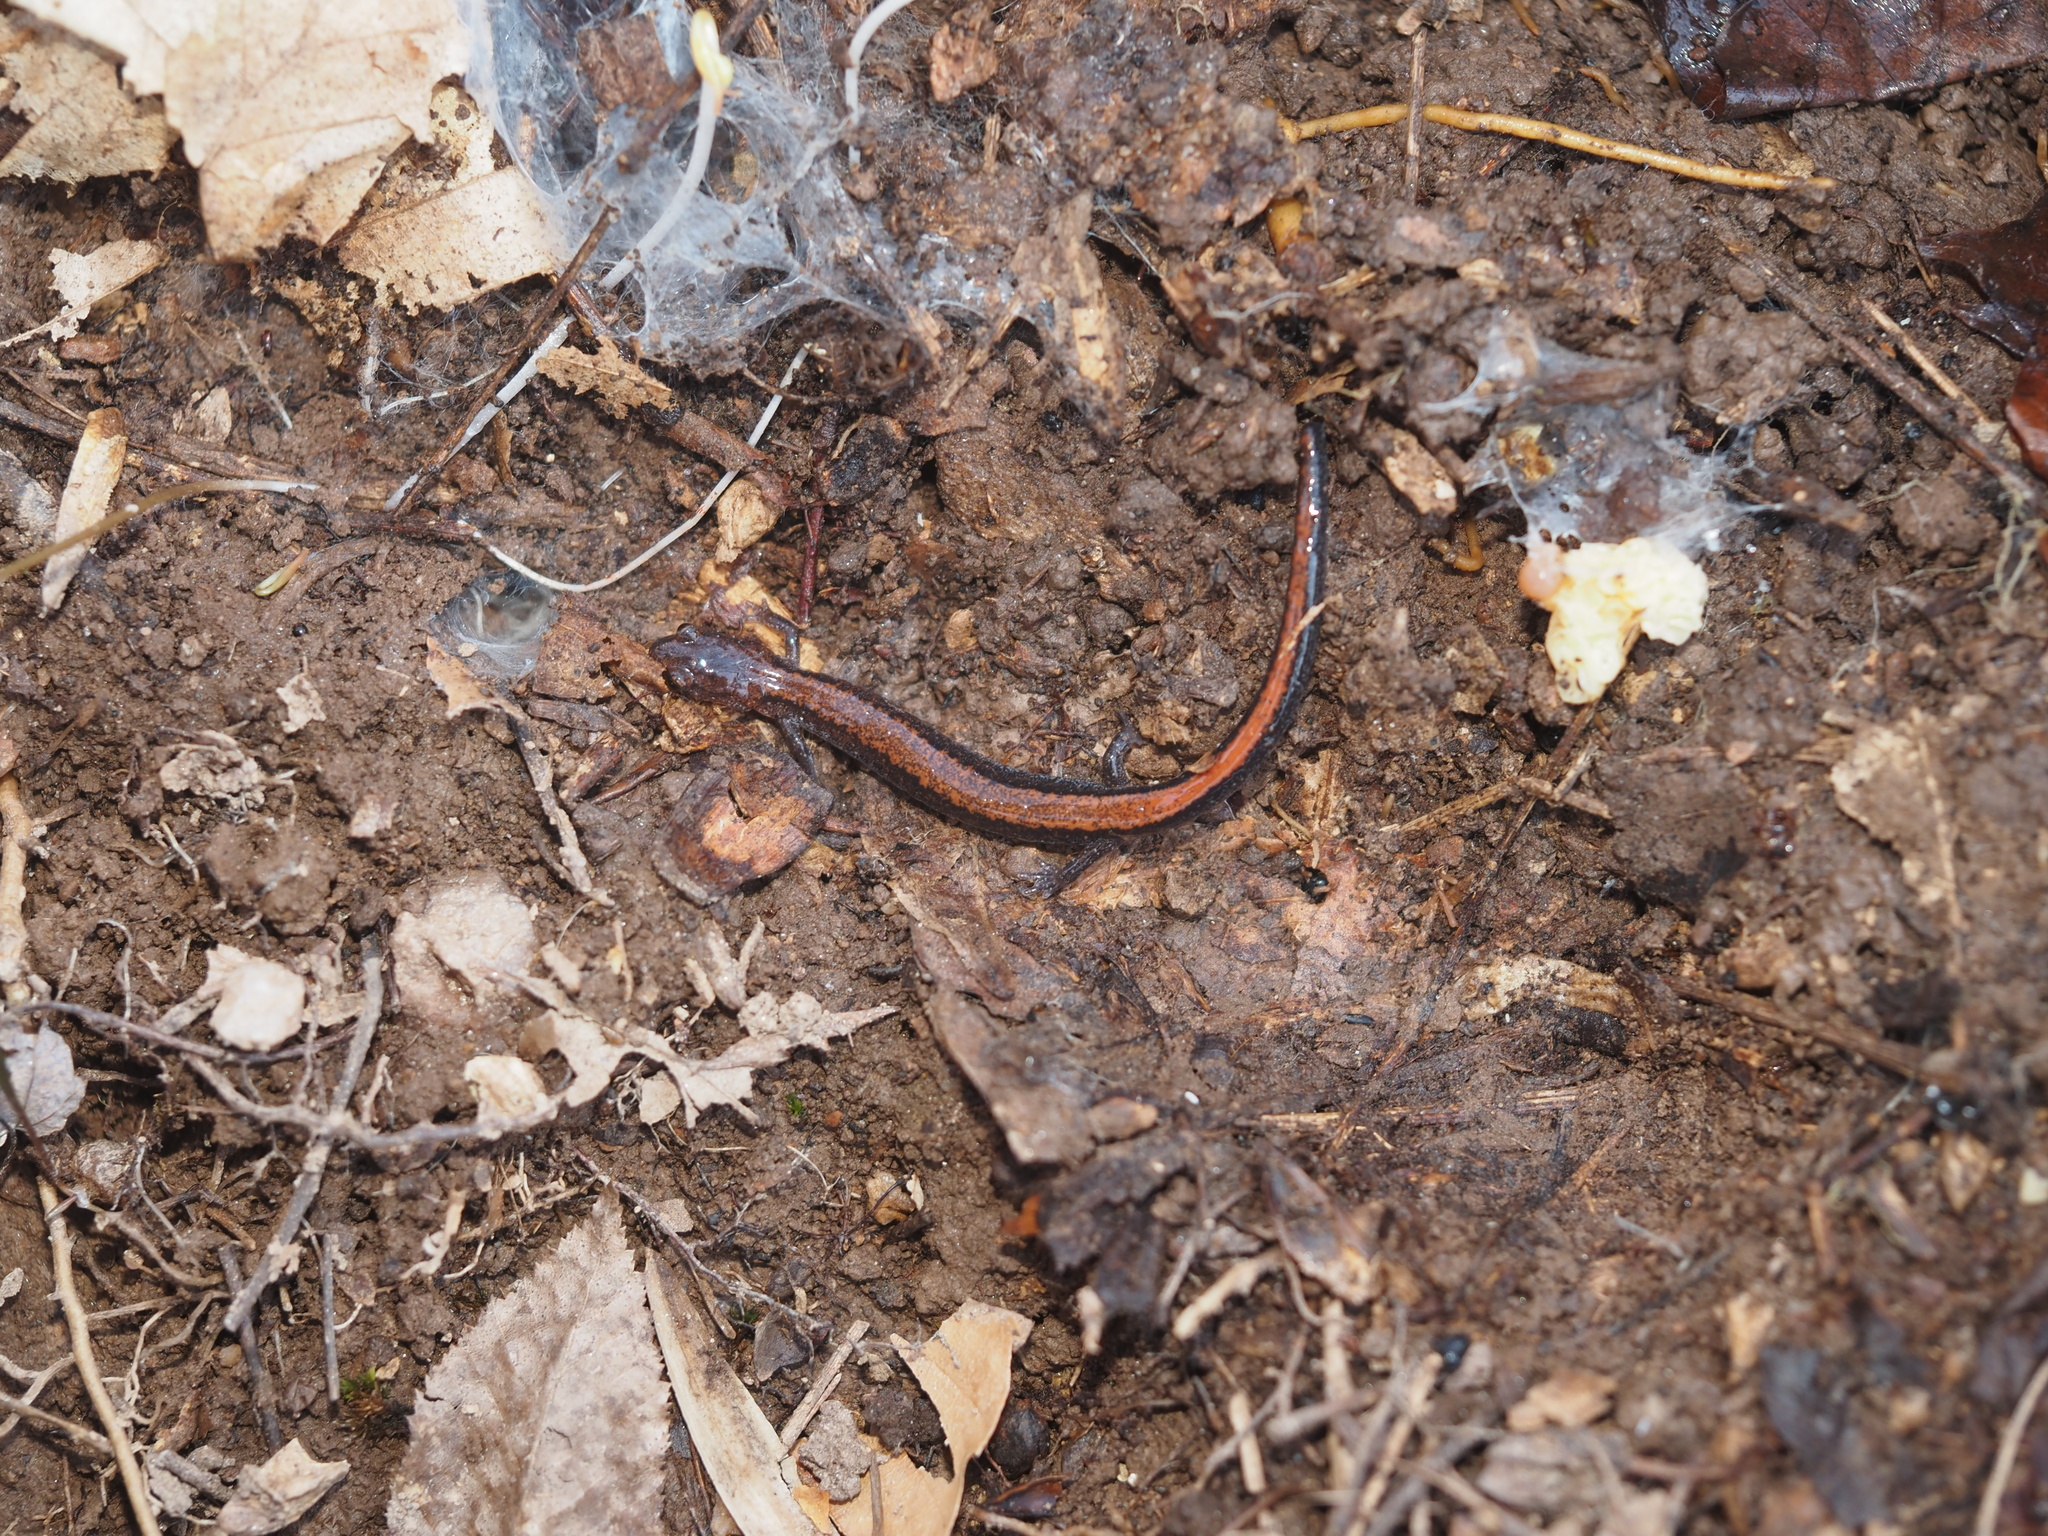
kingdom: Animalia
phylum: Chordata
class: Amphibia
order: Caudata
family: Plethodontidae
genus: Plethodon
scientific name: Plethodon cinereus
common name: Redback salamander
